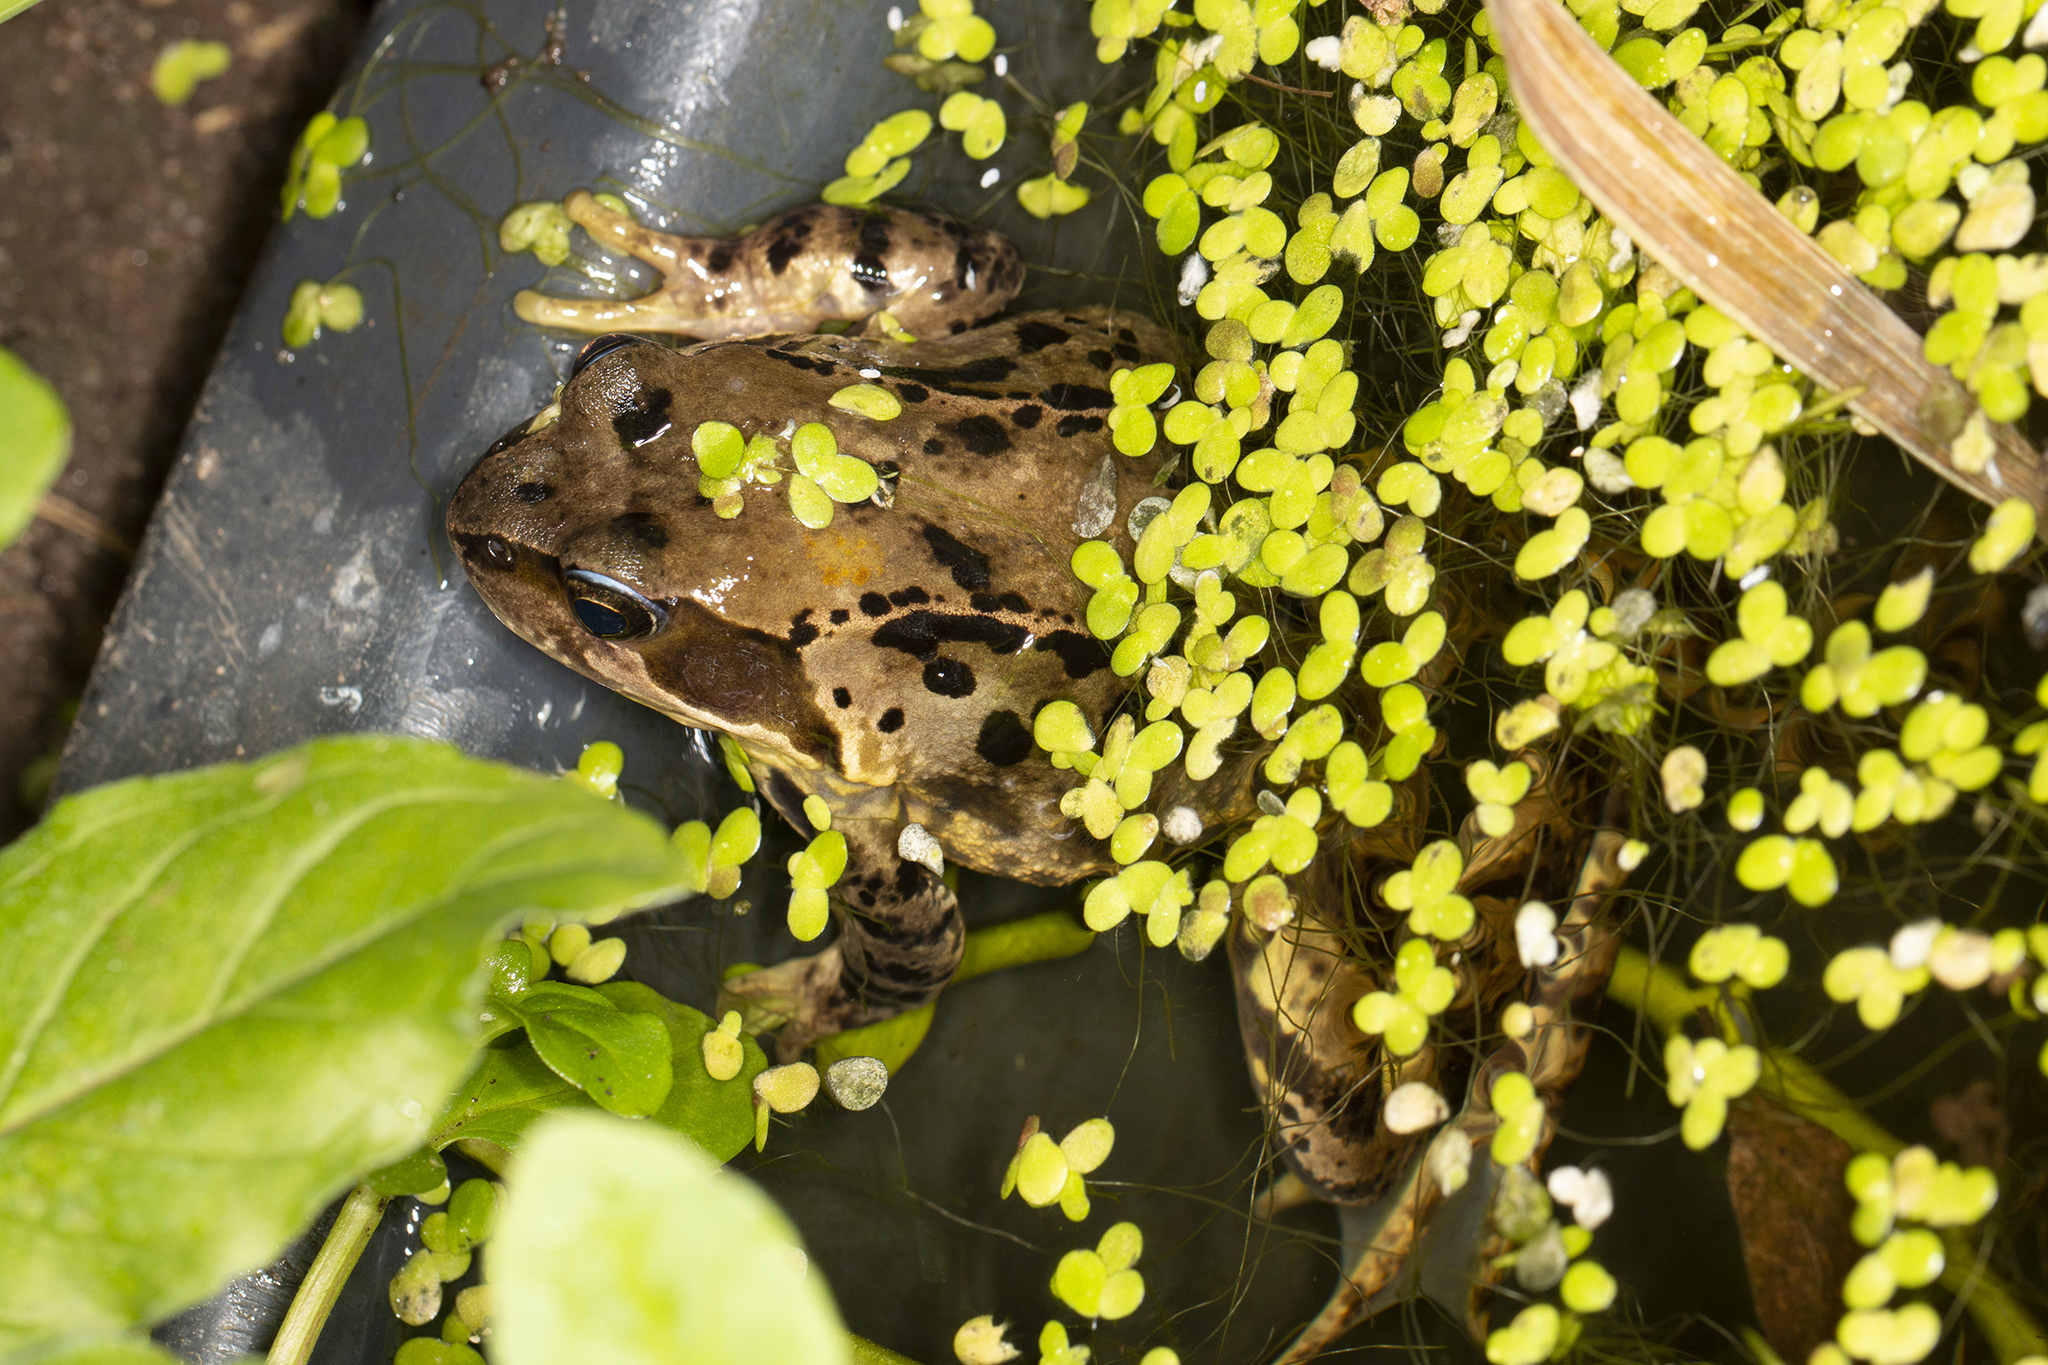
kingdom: Animalia
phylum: Chordata
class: Amphibia
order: Anura
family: Ranidae
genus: Rana
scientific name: Rana temporaria
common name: Common frog
